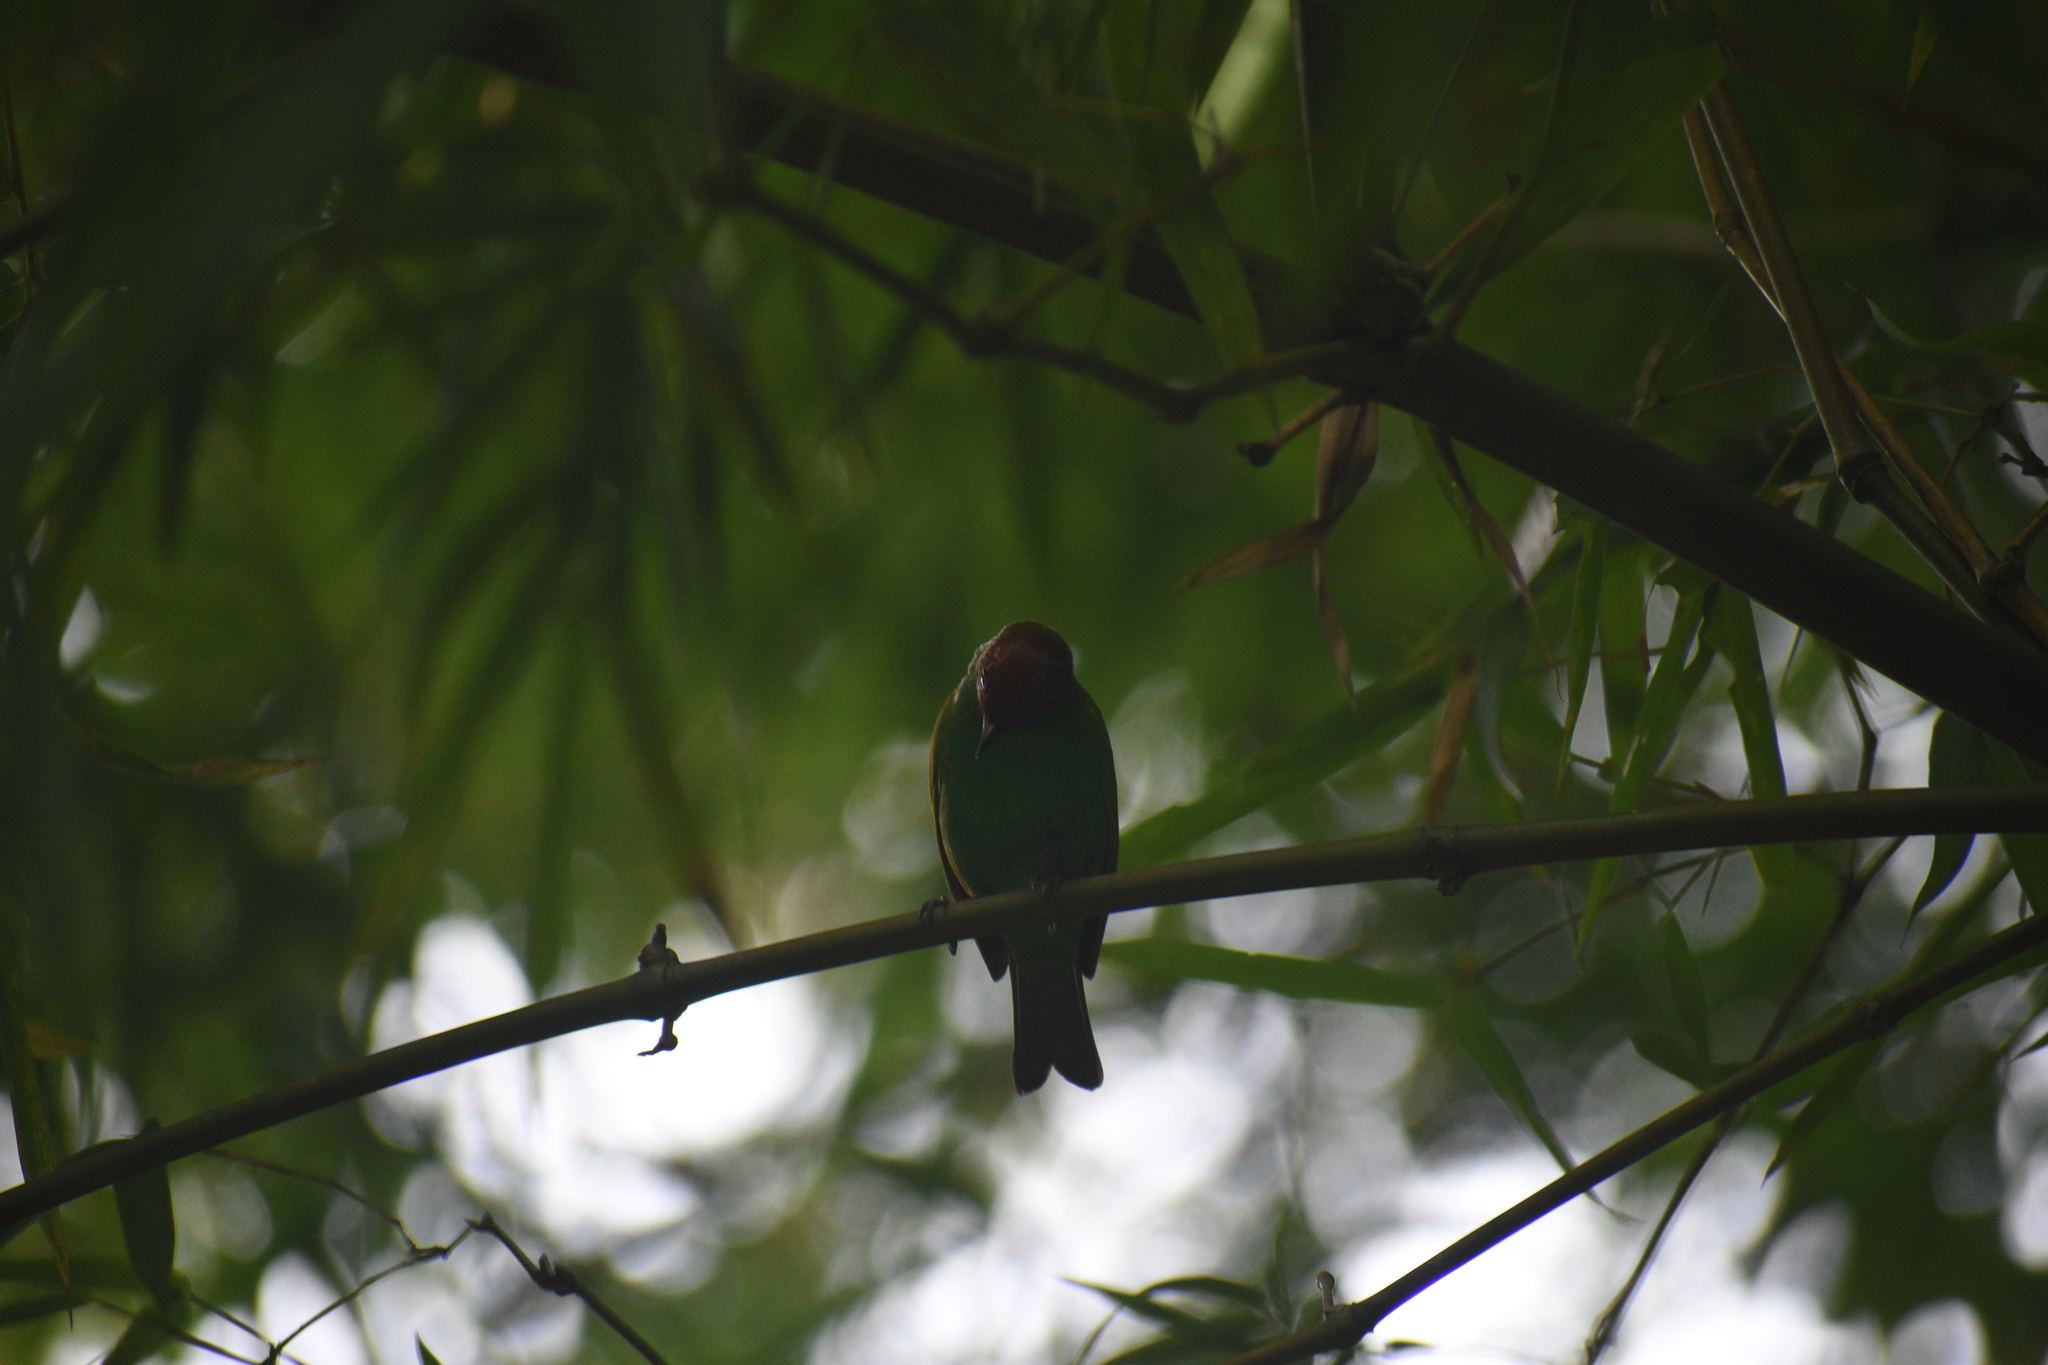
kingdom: Animalia
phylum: Chordata
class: Aves
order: Passeriformes
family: Thraupidae
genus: Tangara
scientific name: Tangara gyrola
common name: Bay-headed tanager
